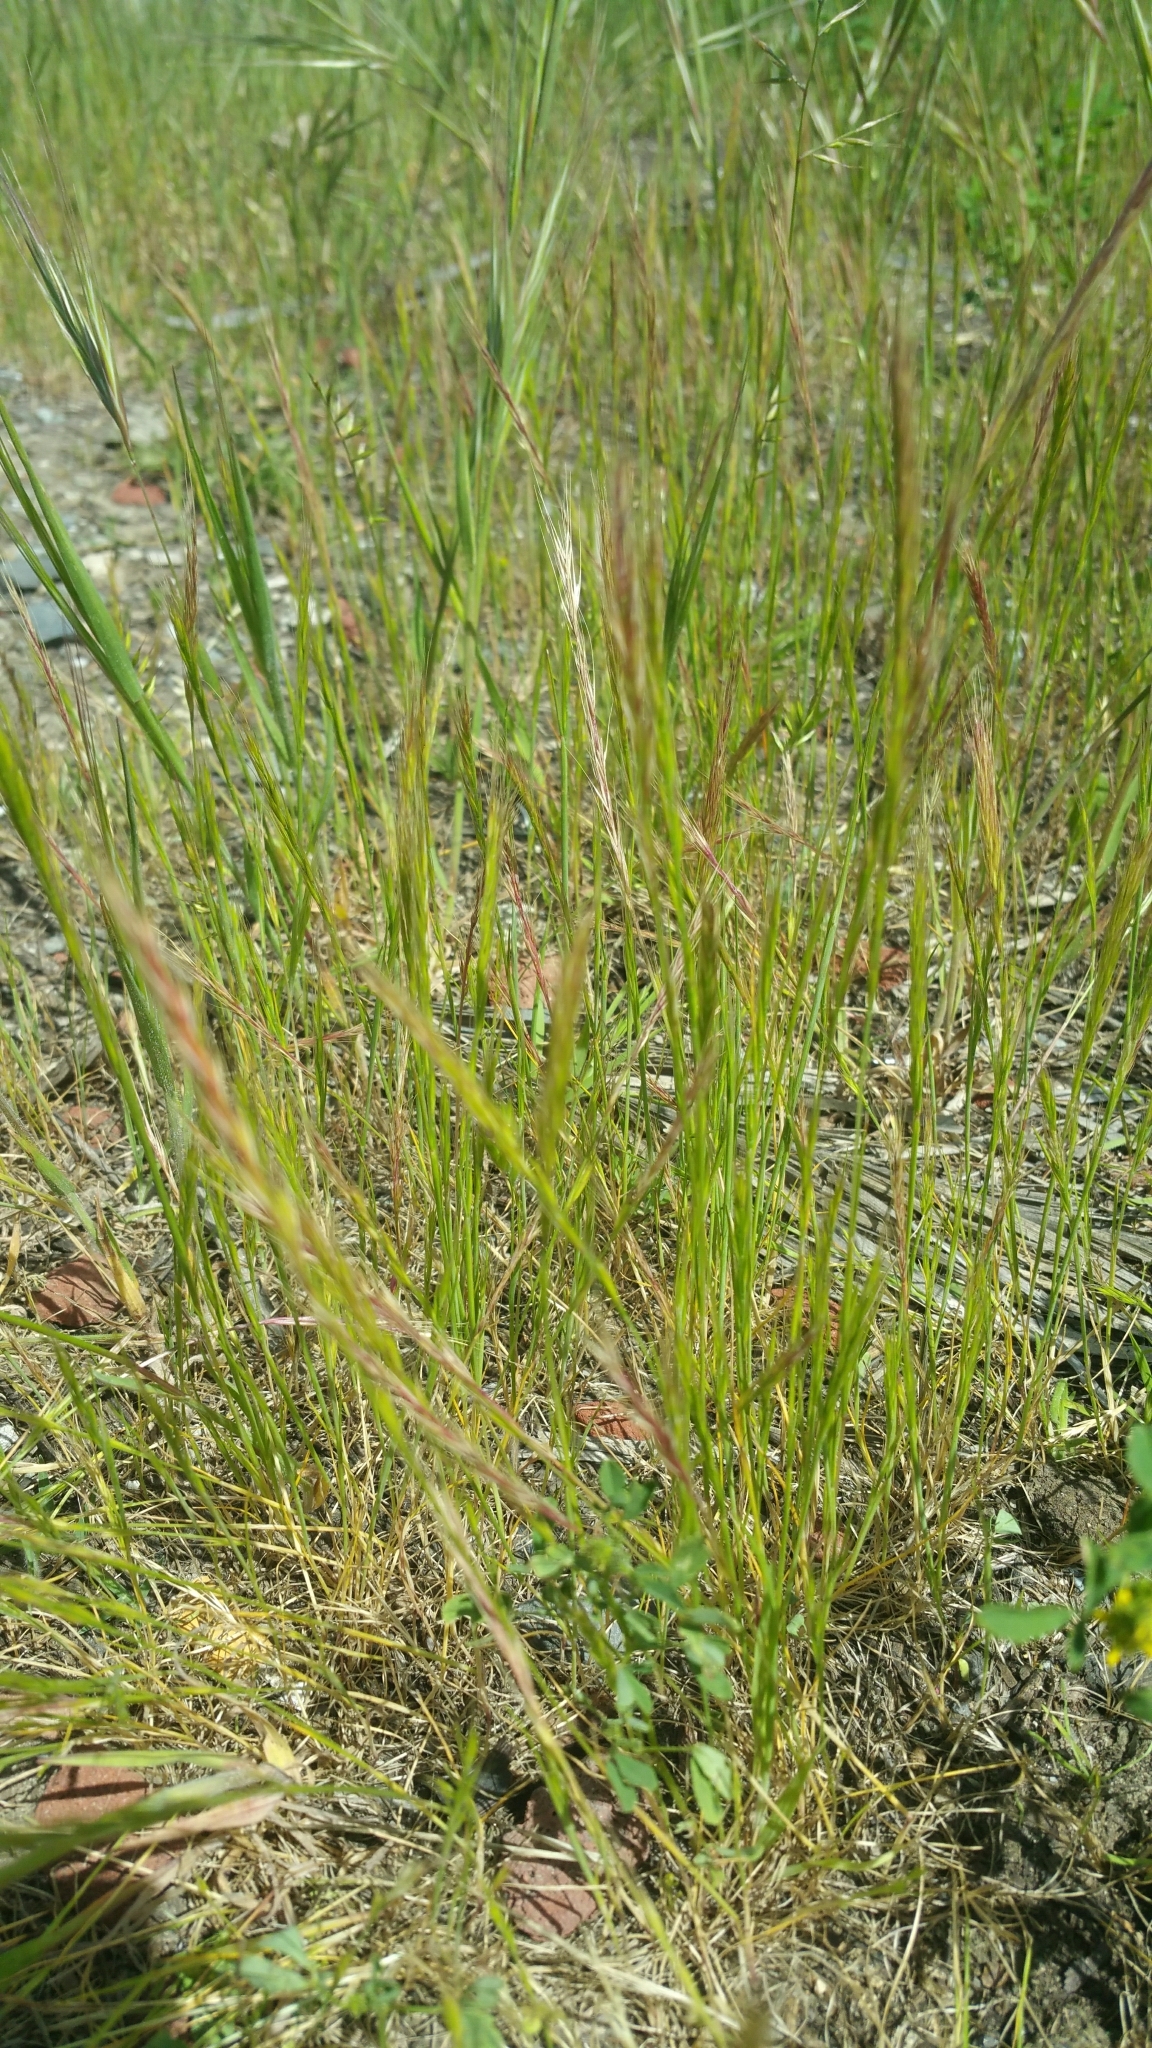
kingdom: Plantae
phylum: Tracheophyta
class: Liliopsida
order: Poales
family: Poaceae
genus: Festuca
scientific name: Festuca myuros
